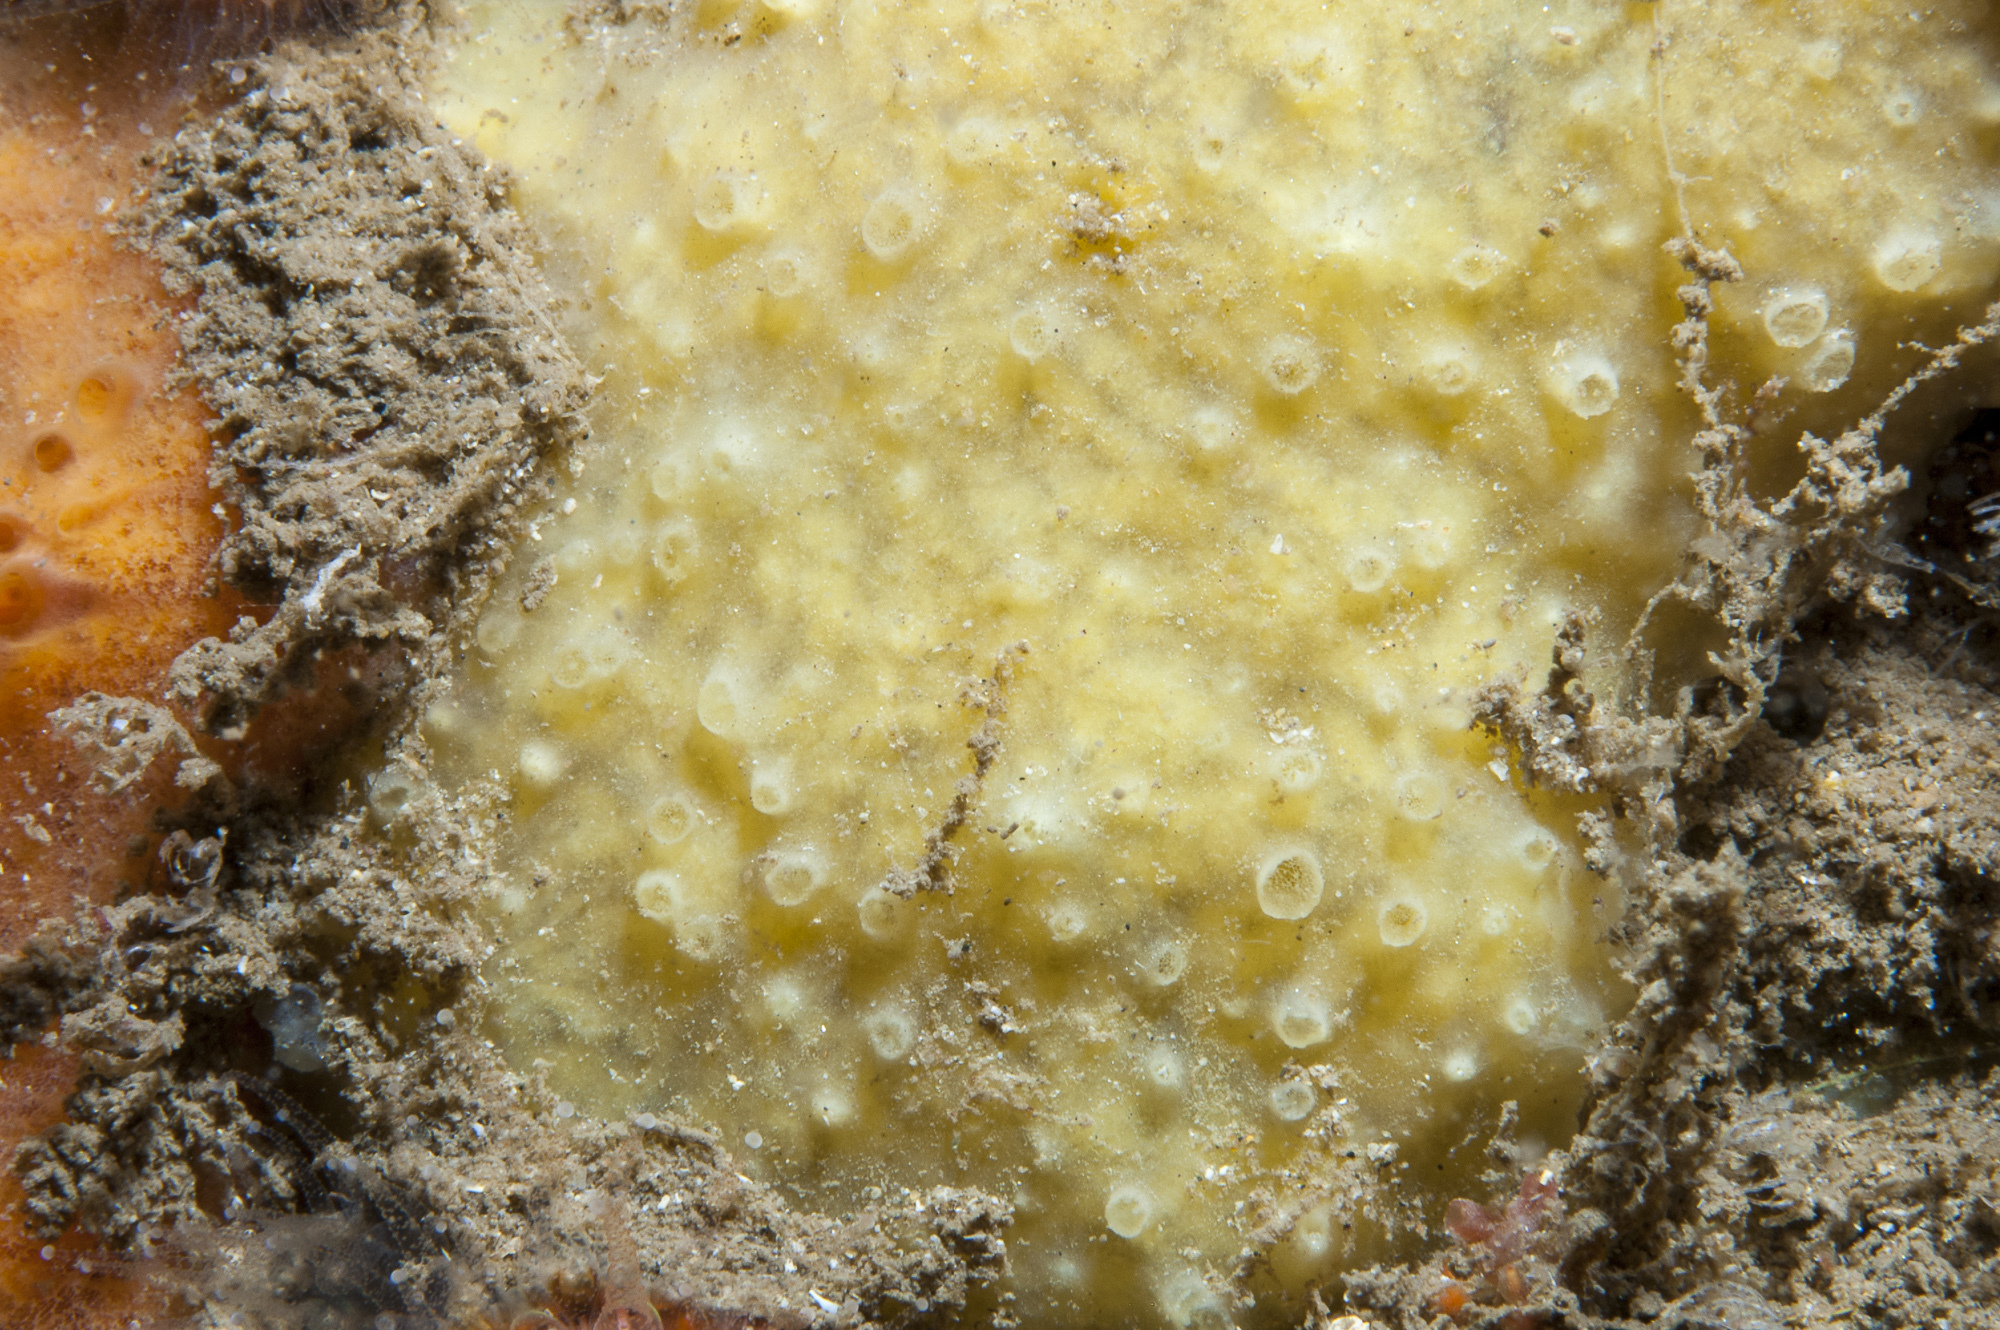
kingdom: Animalia
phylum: Porifera
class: Demospongiae
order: Poecilosclerida
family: Coelosphaeridae
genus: Lissodendoryx
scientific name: Lissodendoryx jenjonesae
